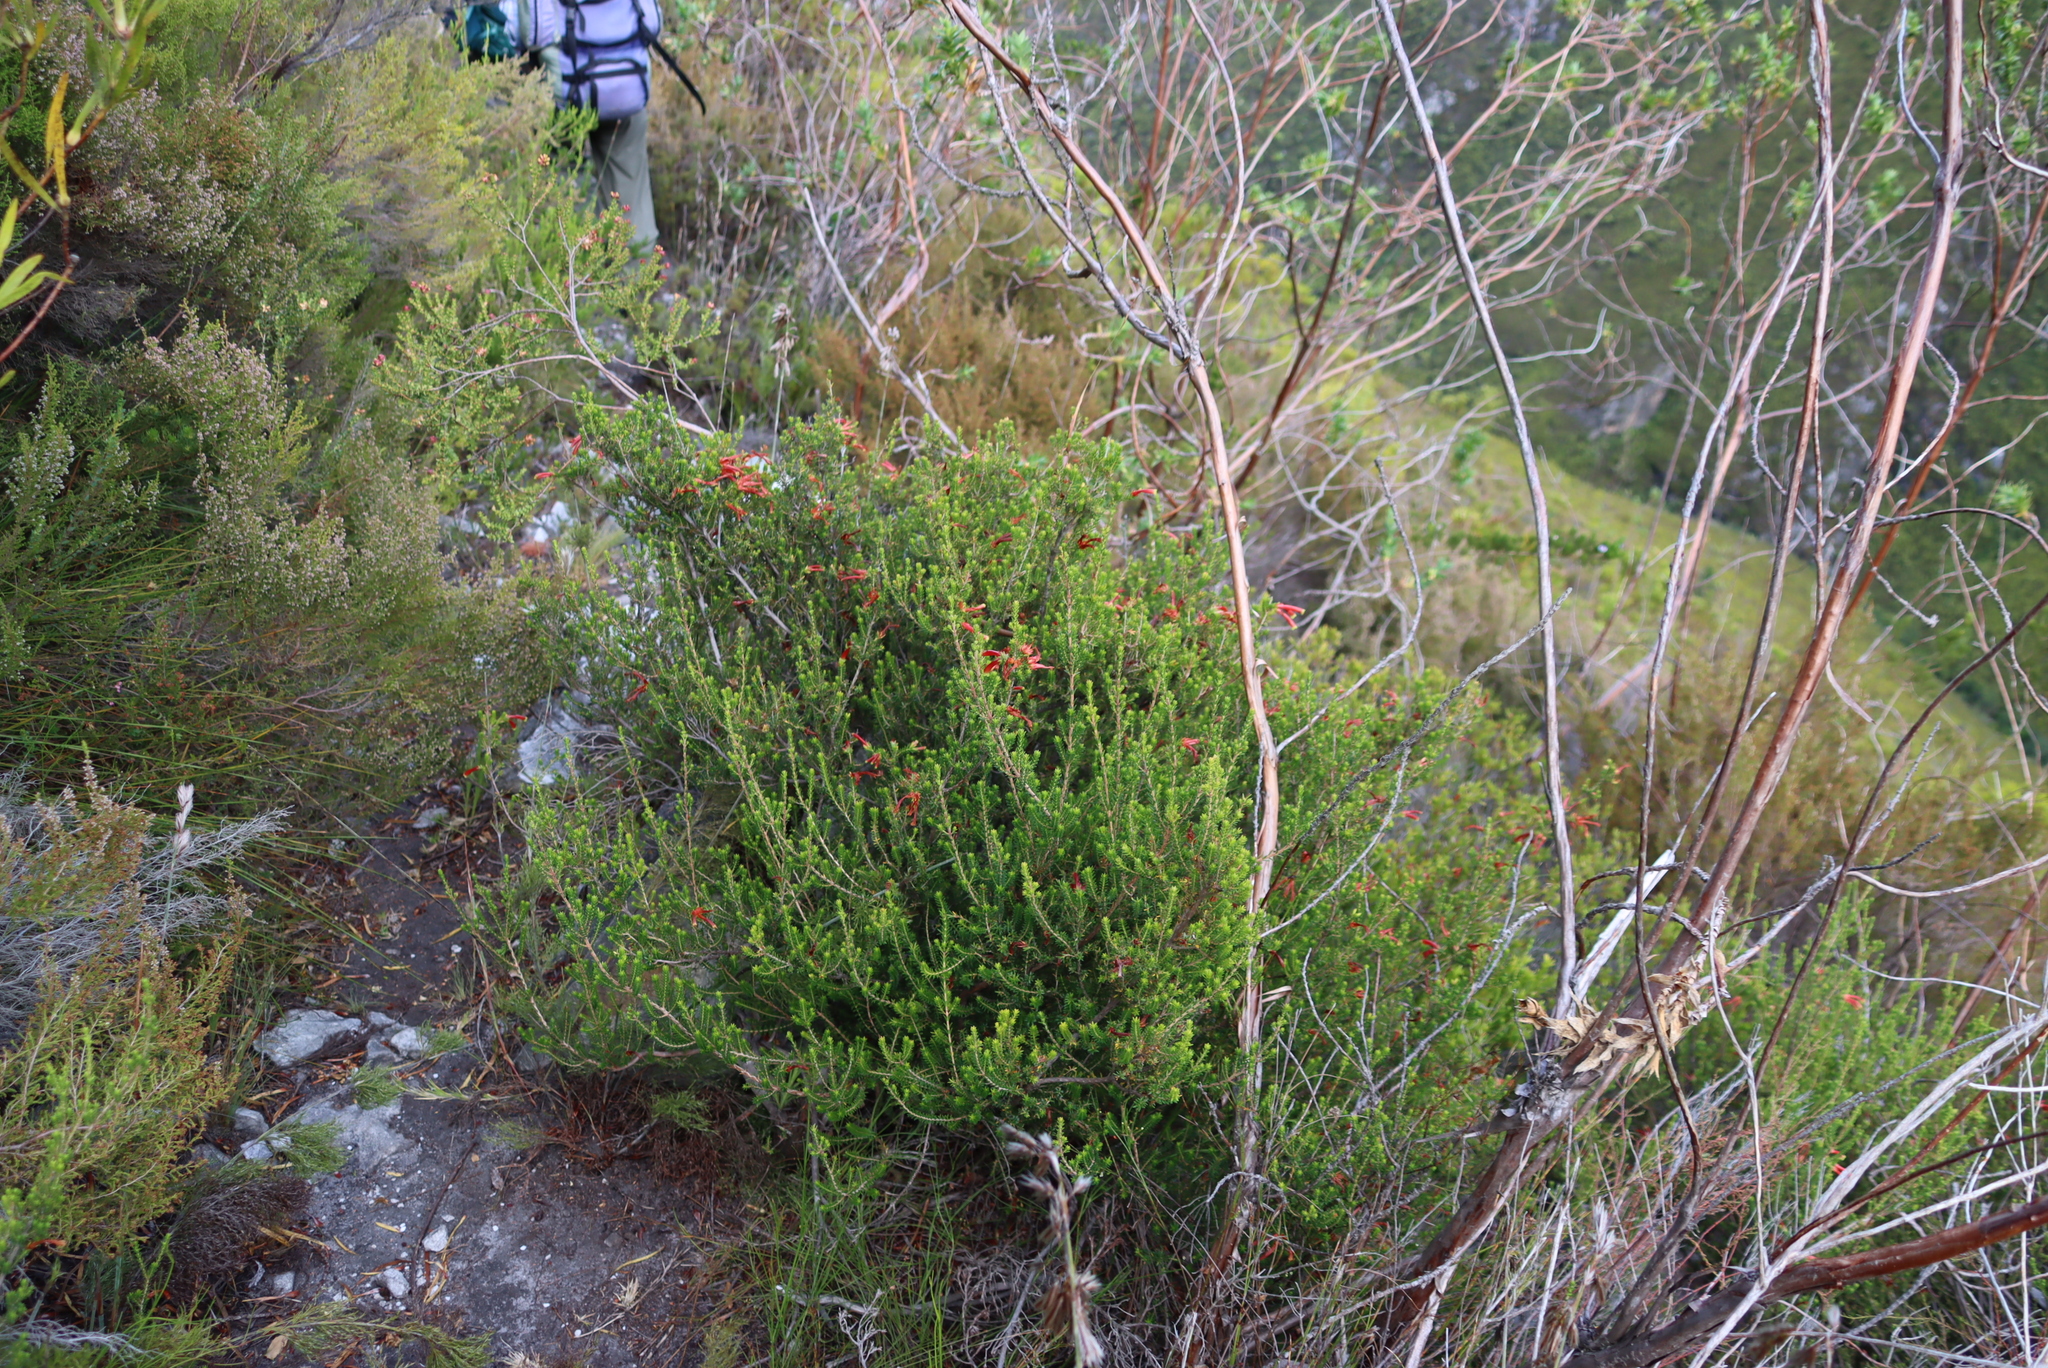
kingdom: Plantae
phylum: Tracheophyta
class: Magnoliopsida
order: Ericales
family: Ericaceae
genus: Erica
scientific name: Erica discolor
